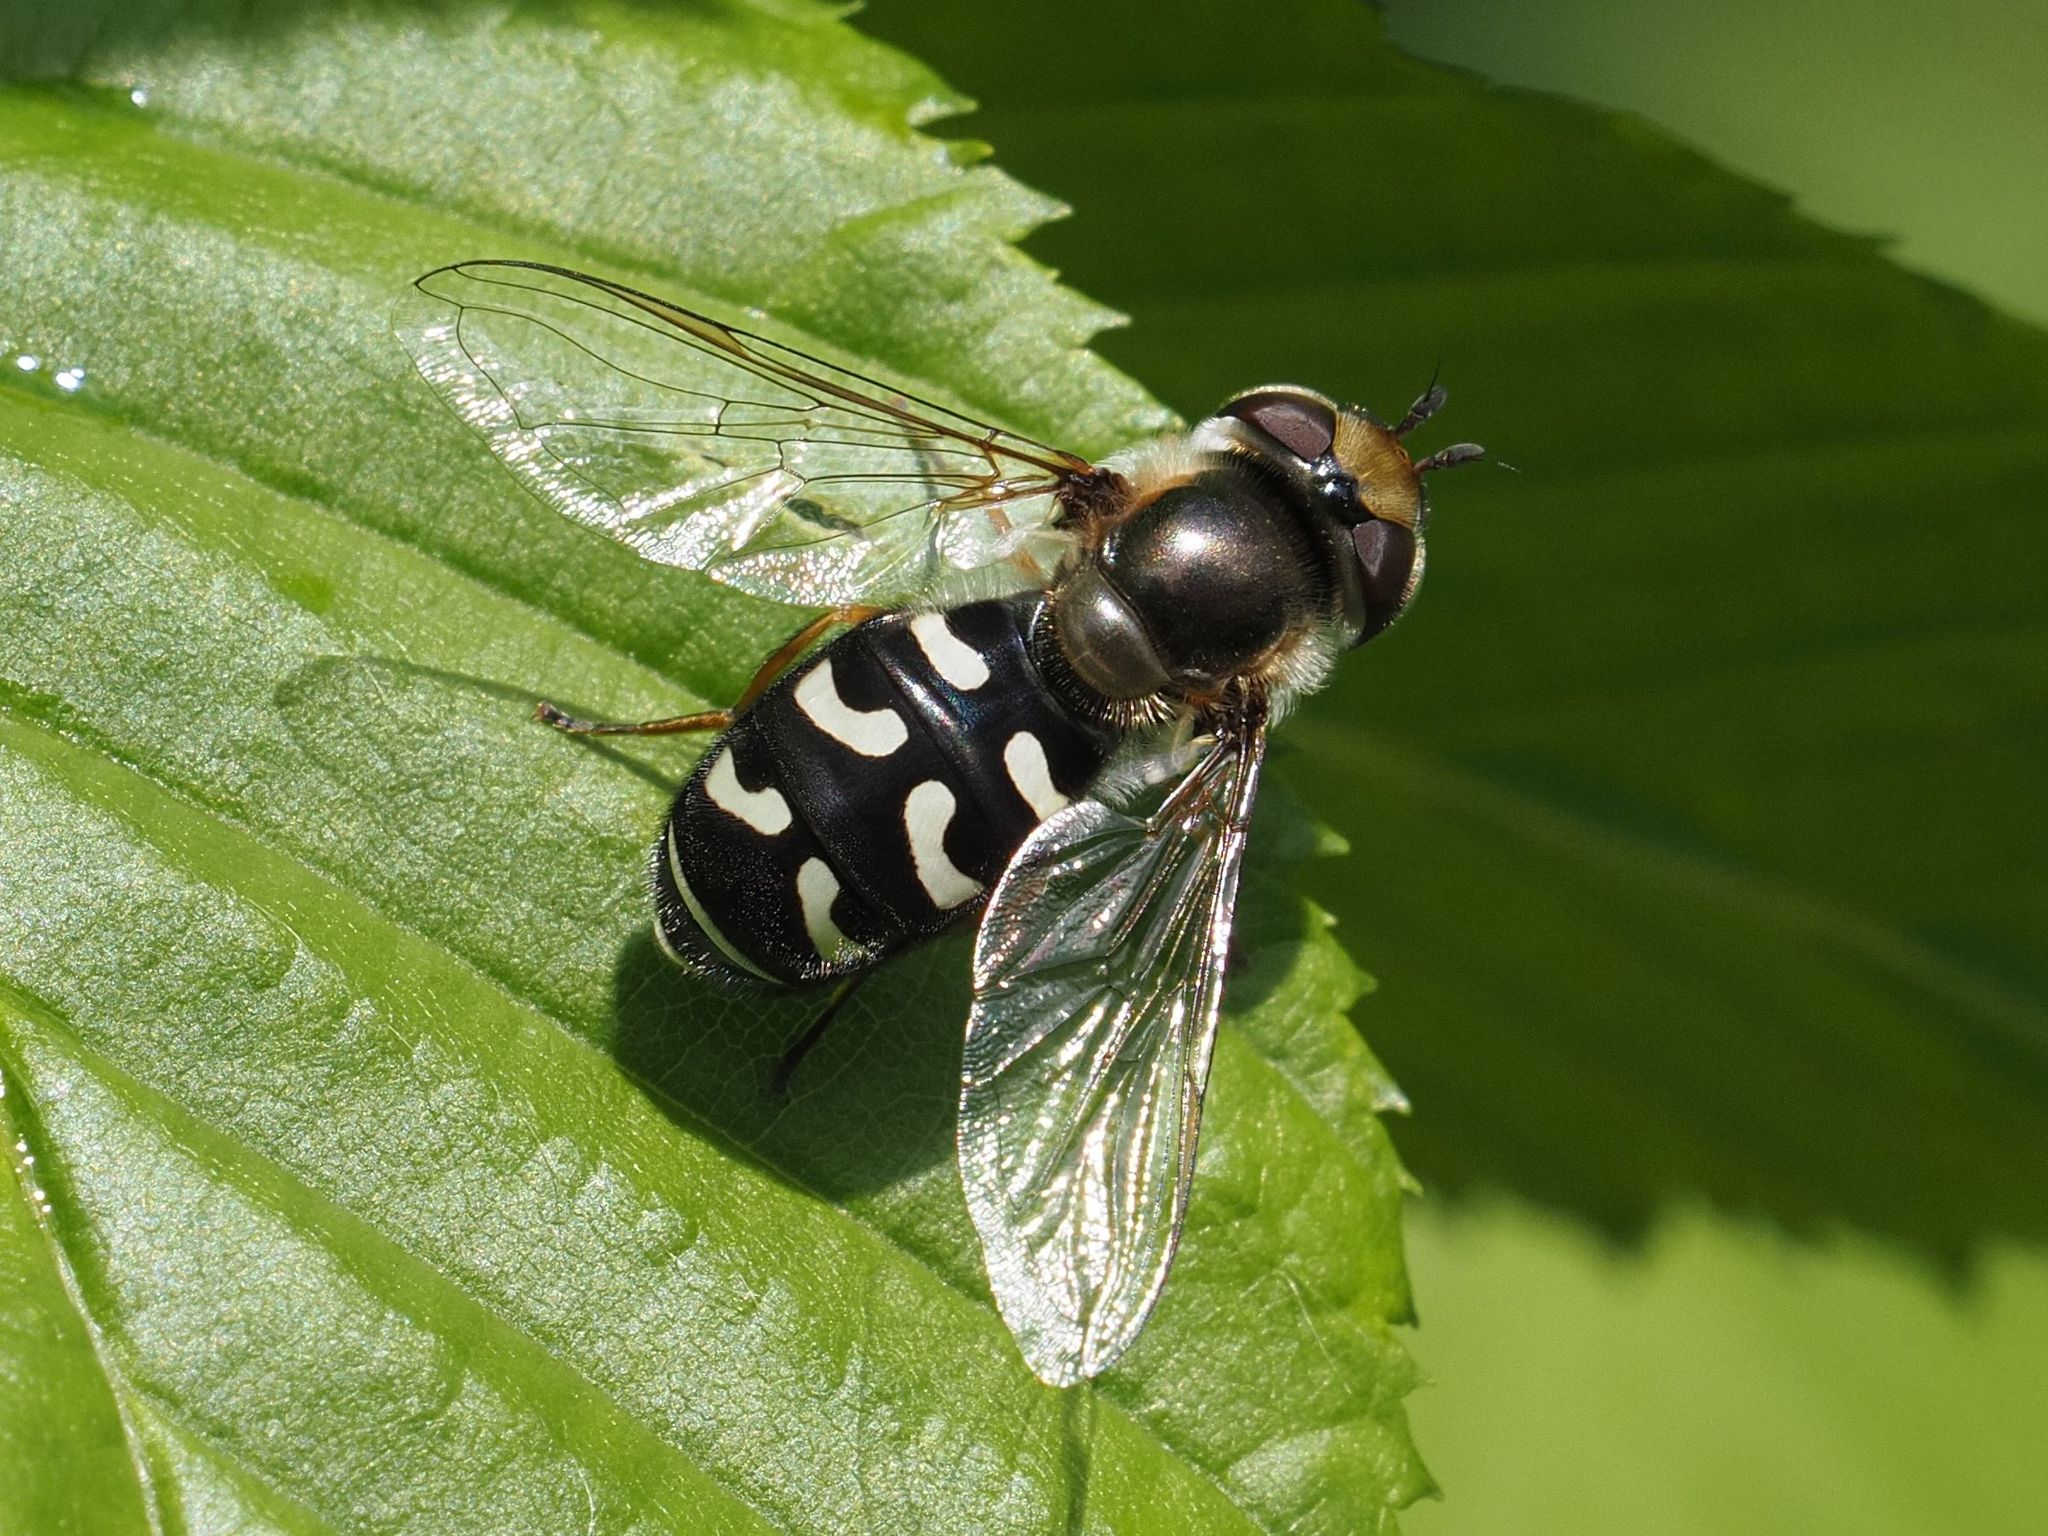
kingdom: Animalia
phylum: Arthropoda
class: Insecta
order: Diptera
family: Syrphidae
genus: Scaeva
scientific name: Scaeva pyrastri
